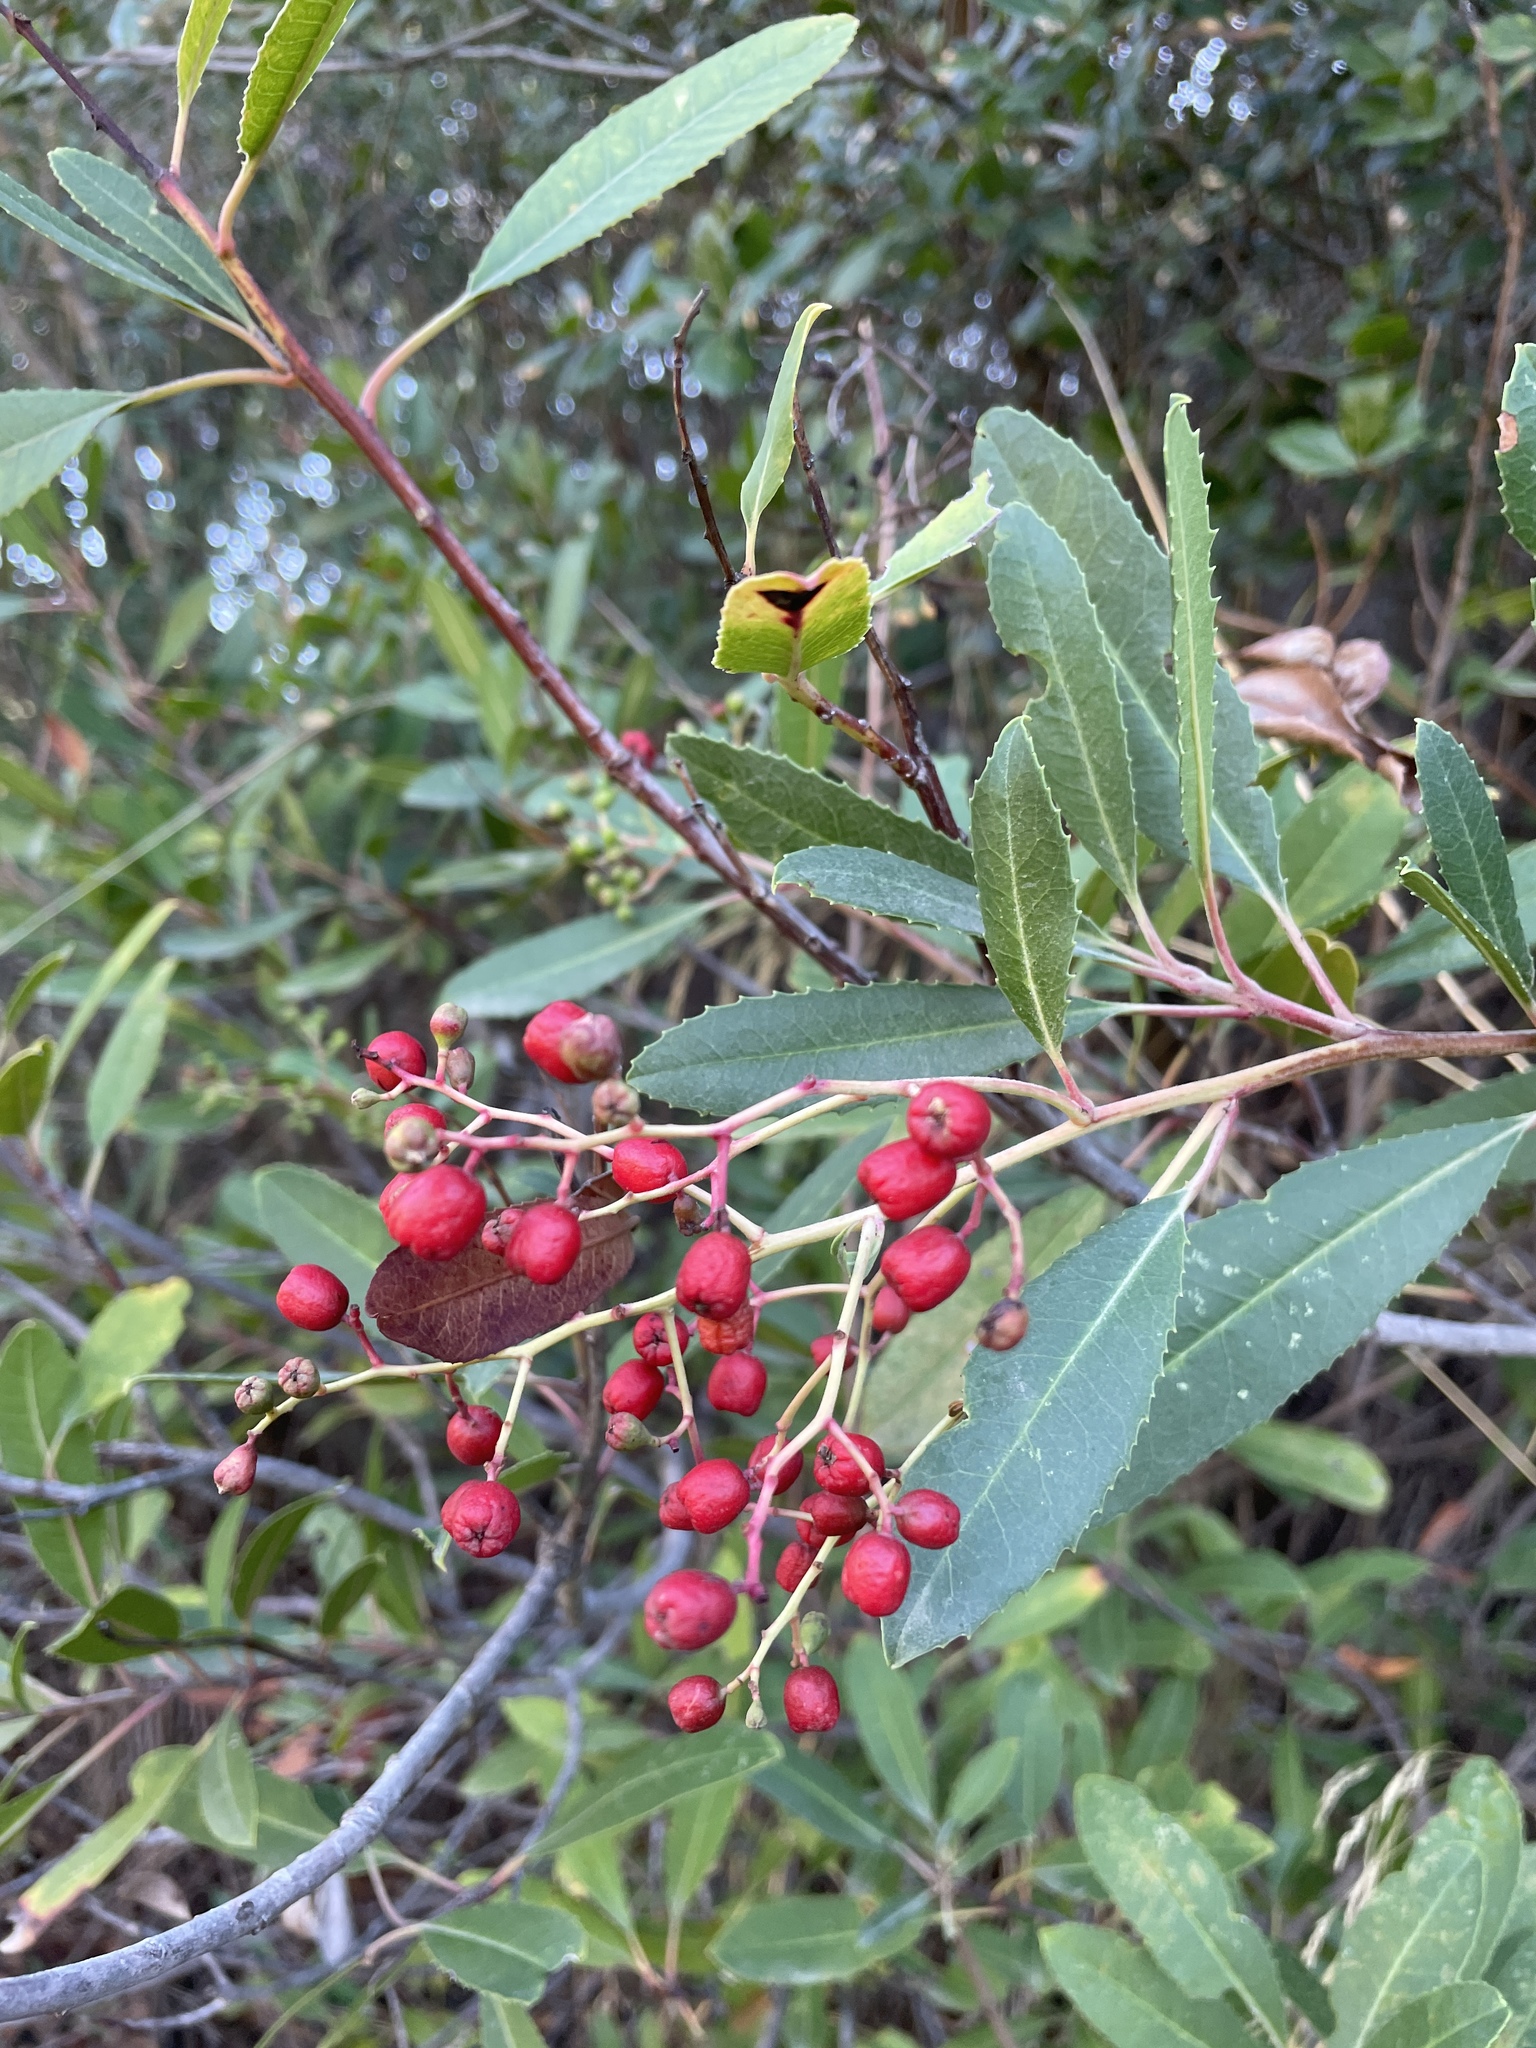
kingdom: Plantae
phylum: Tracheophyta
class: Magnoliopsida
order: Rosales
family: Rosaceae
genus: Heteromeles
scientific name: Heteromeles arbutifolia
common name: California-holly
